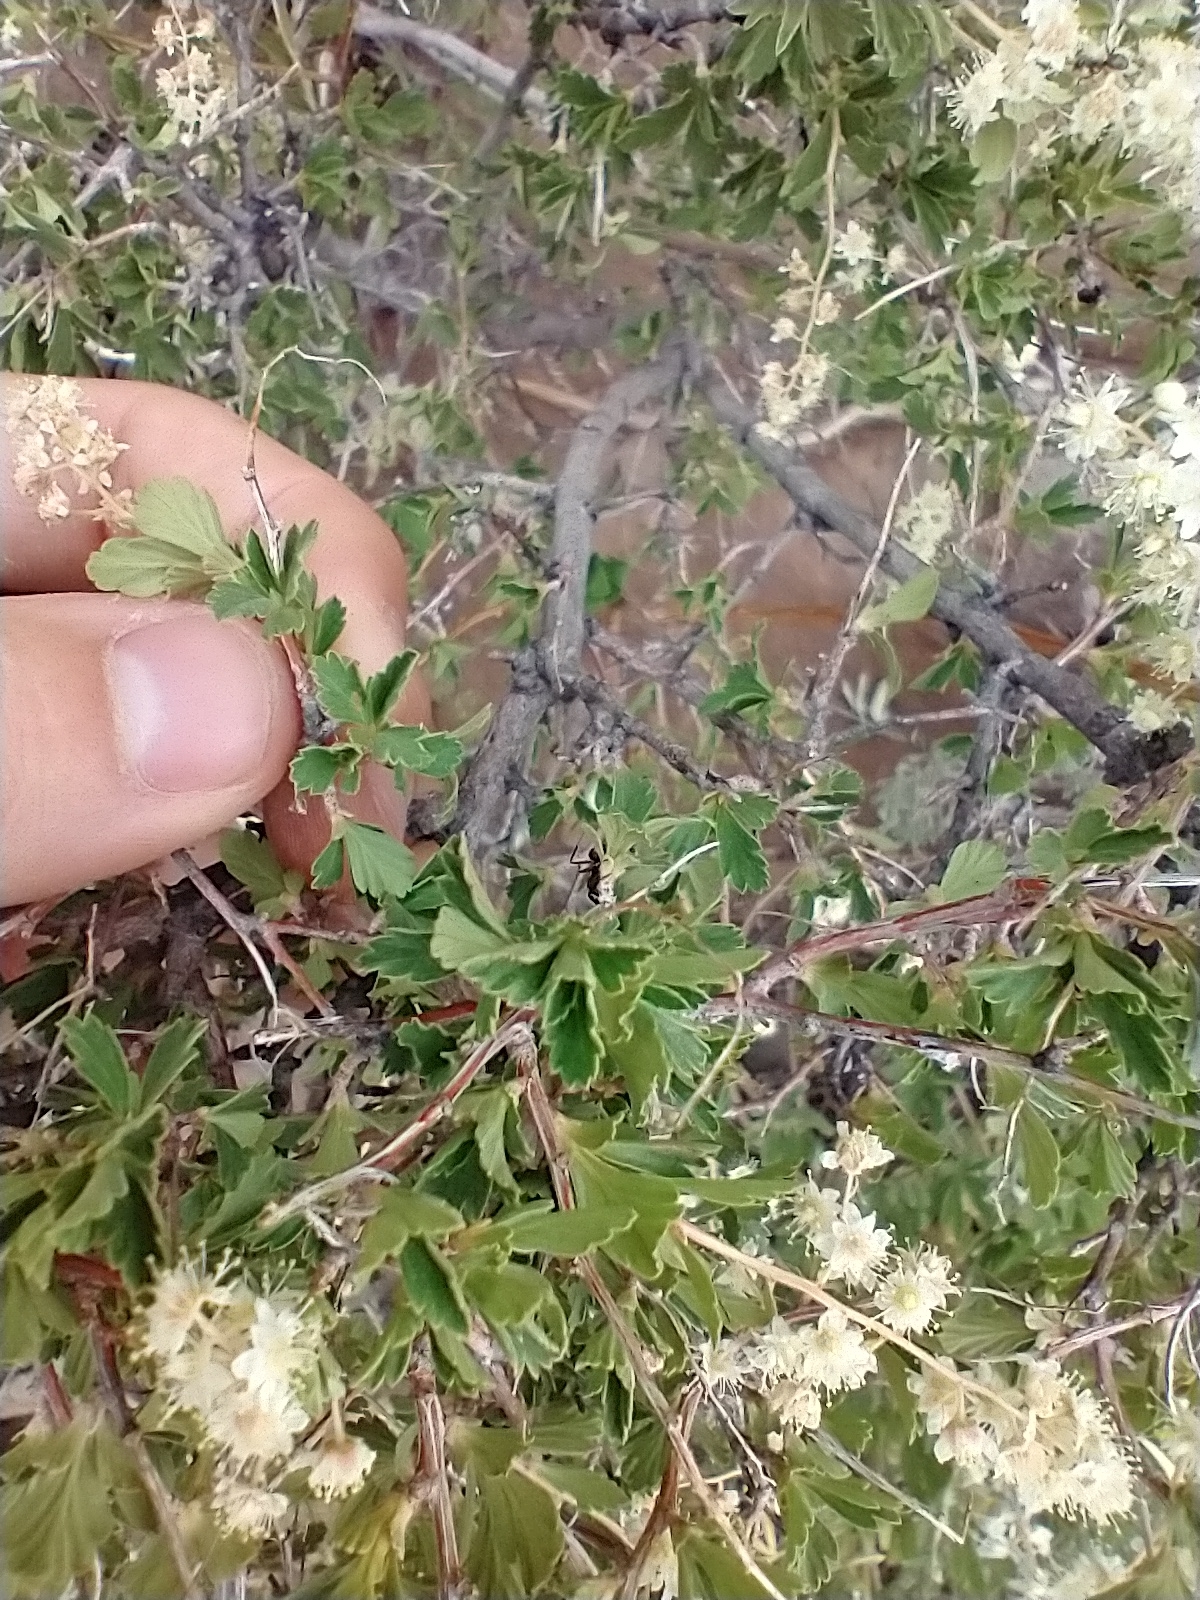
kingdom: Plantae
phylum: Tracheophyta
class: Magnoliopsida
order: Rosales
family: Rosaceae
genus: Holodiscus
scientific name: Holodiscus discolor
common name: Oceanspray
